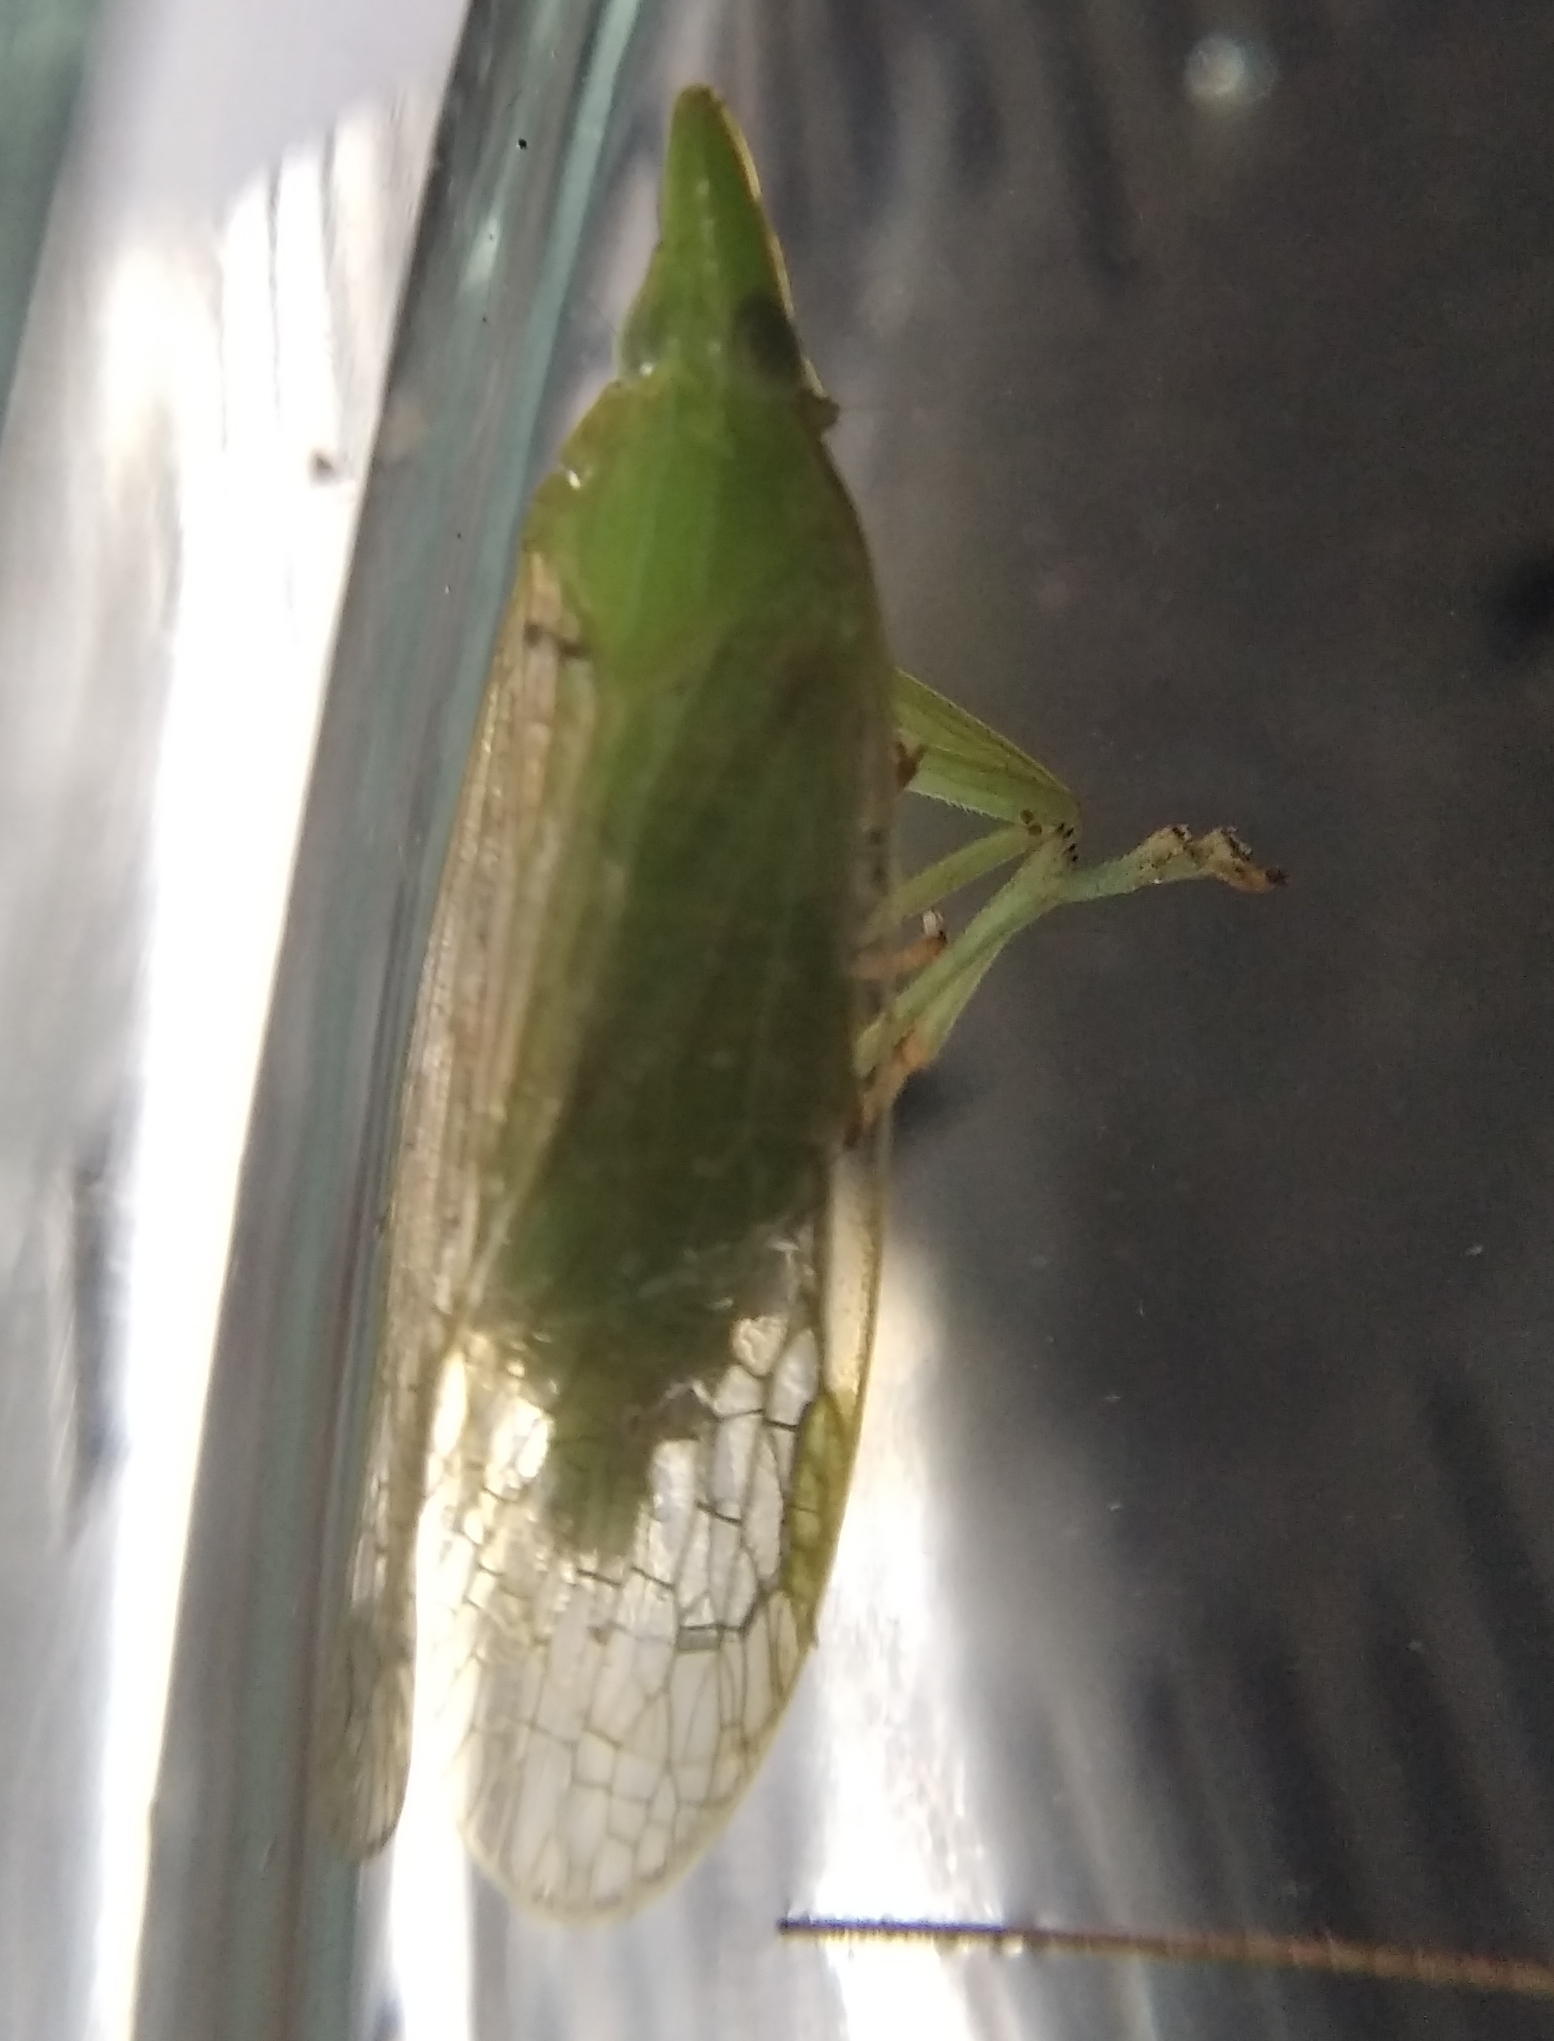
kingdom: Animalia
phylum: Arthropoda
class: Insecta
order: Hemiptera
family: Dictyopharidae
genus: Dictyophara
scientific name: Dictyophara europaea
